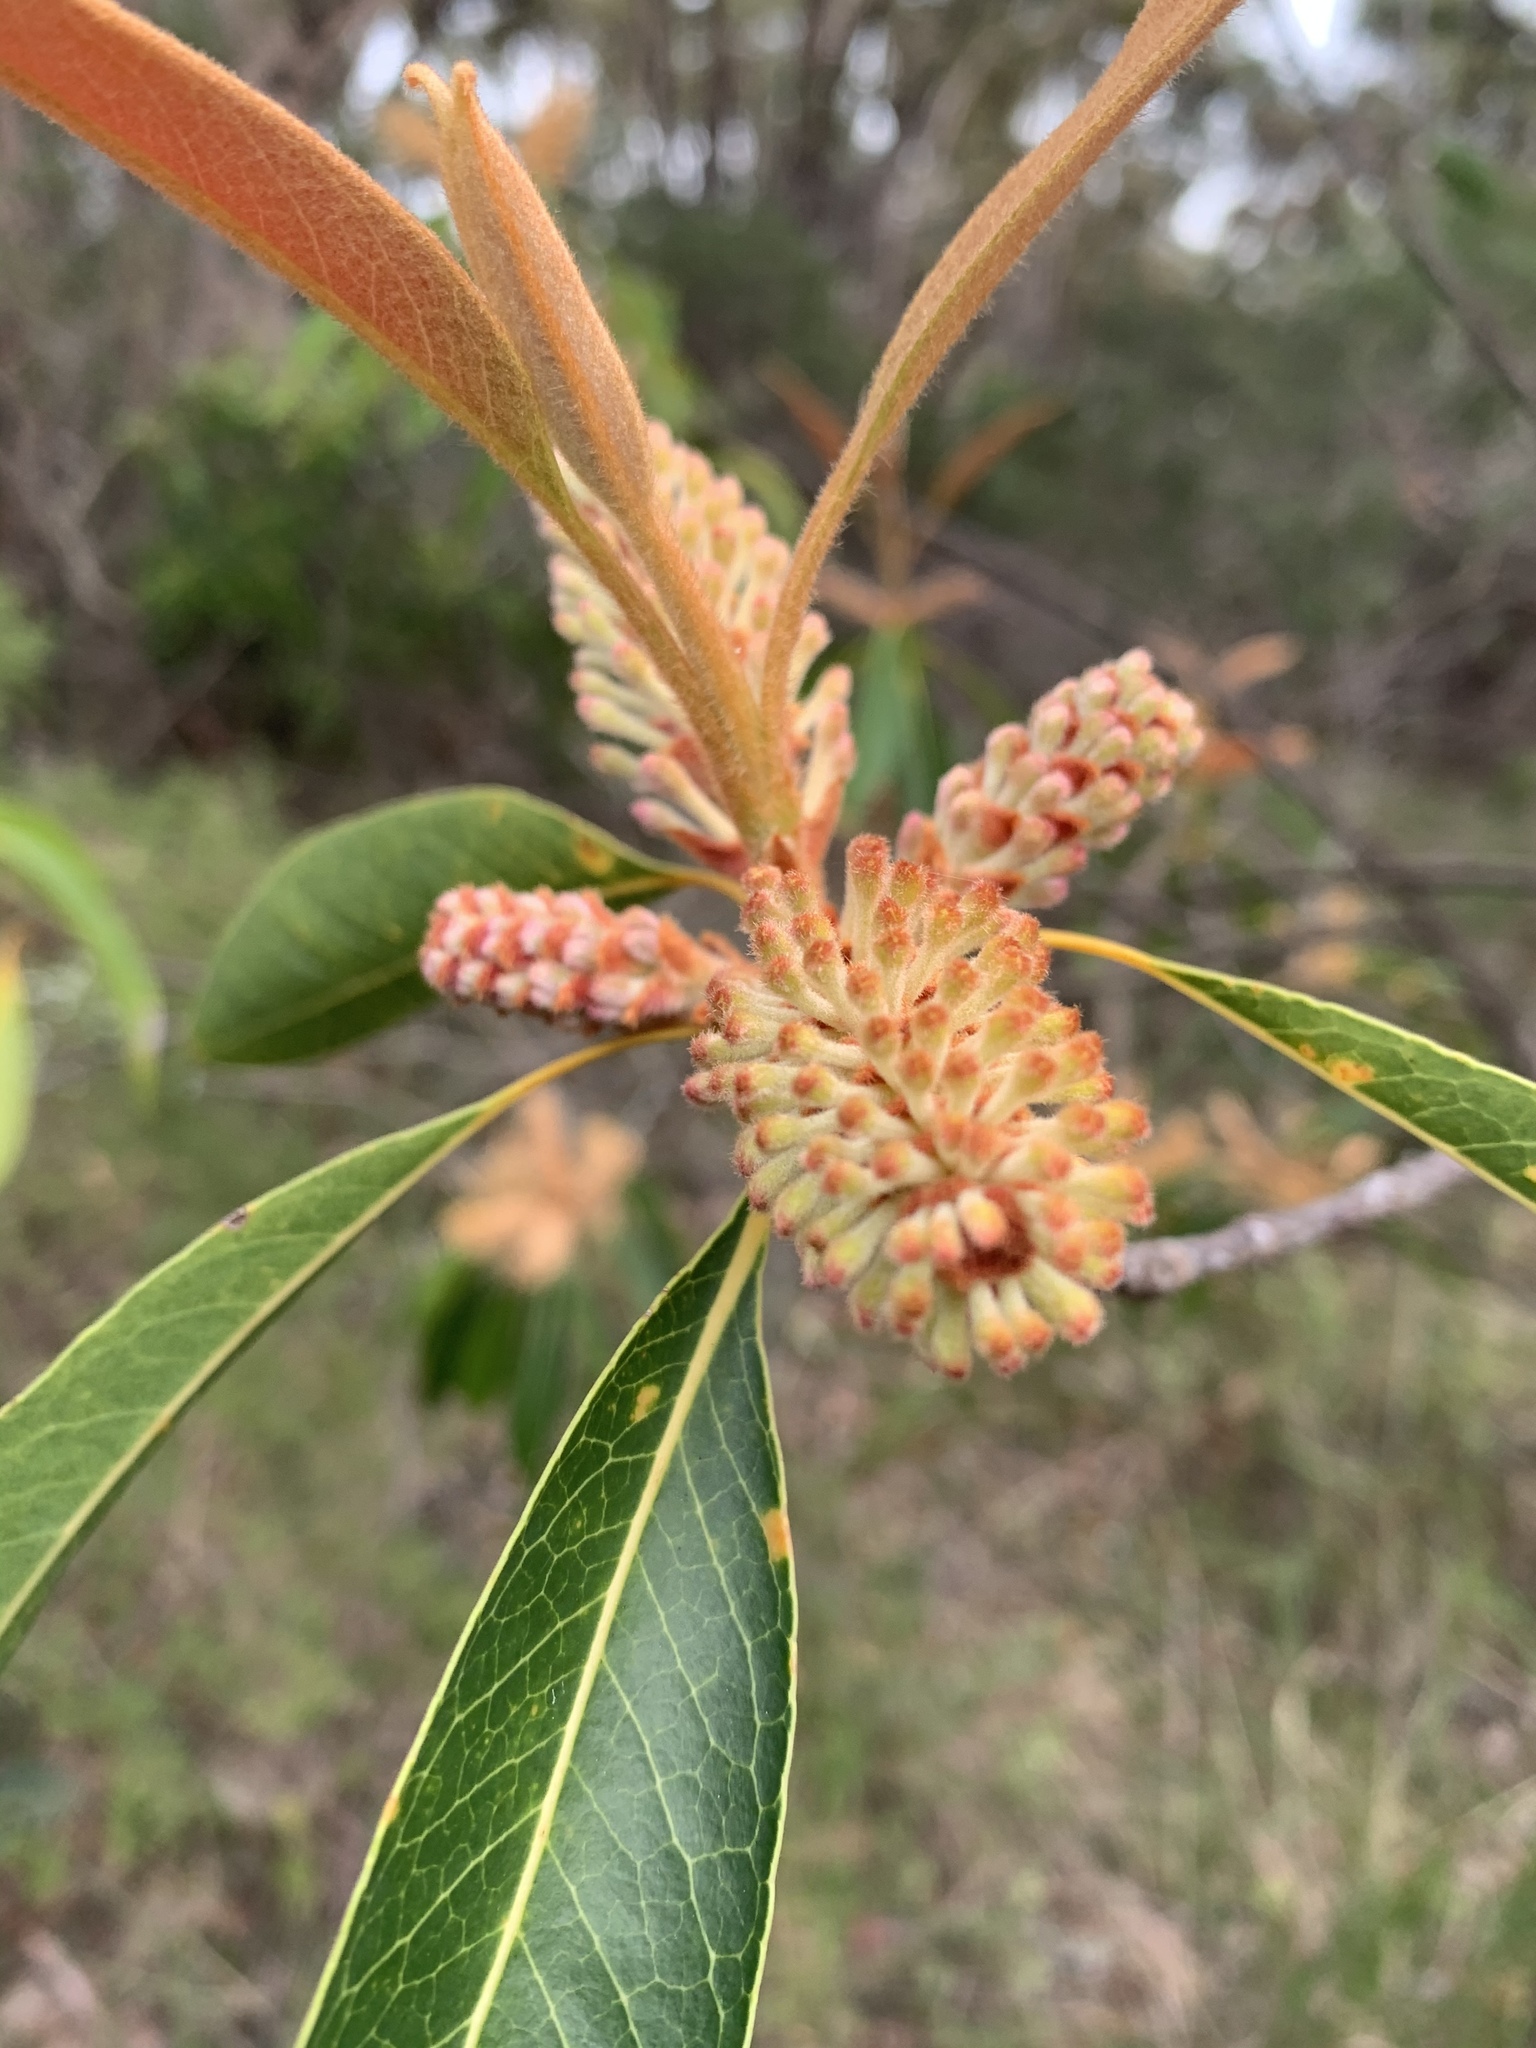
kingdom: Plantae
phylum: Tracheophyta
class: Magnoliopsida
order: Proteales
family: Proteaceae
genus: Xylomelum
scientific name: Xylomelum pyriforme
